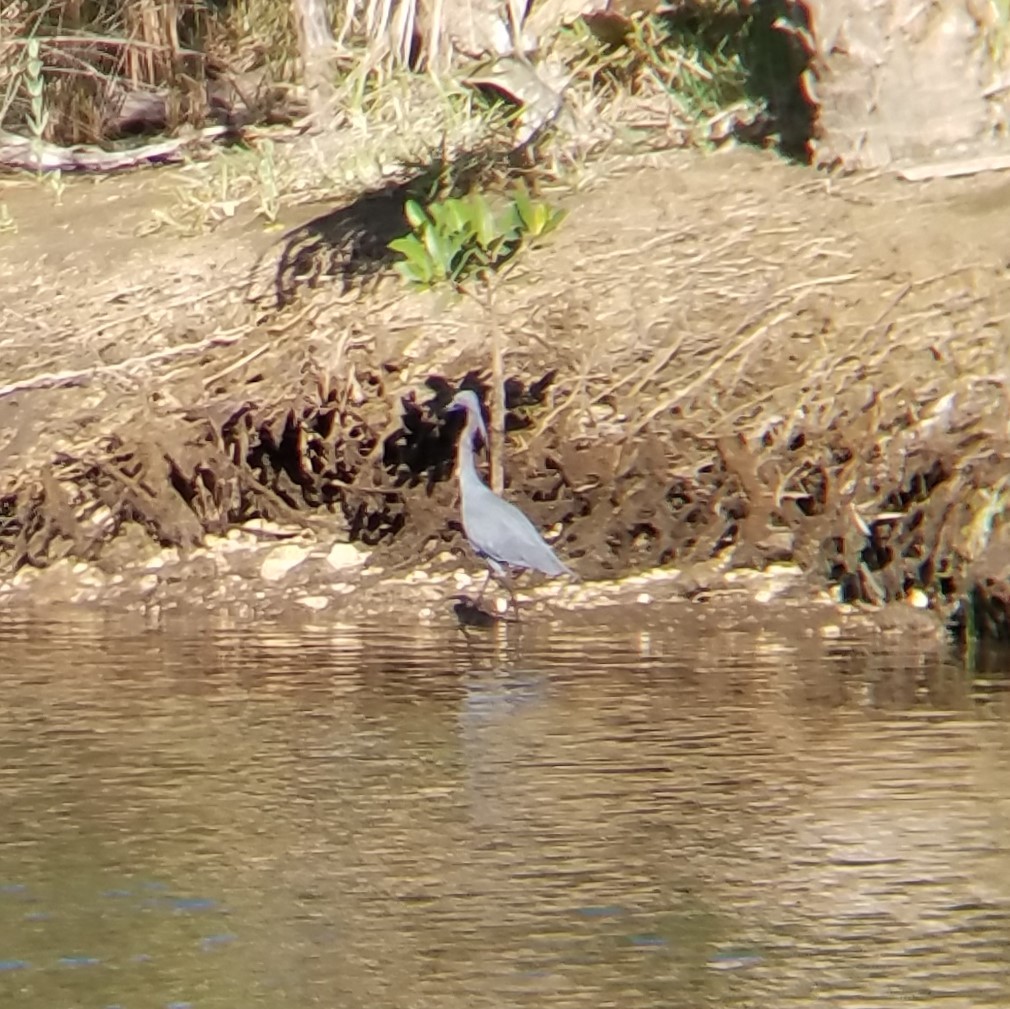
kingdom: Animalia
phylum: Chordata
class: Aves
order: Pelecaniformes
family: Ardeidae
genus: Egretta
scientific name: Egretta caerulea
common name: Little blue heron
